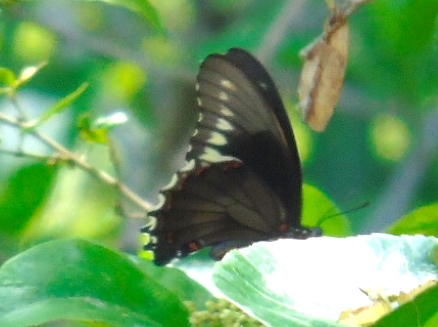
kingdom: Animalia
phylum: Arthropoda
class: Insecta
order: Lepidoptera
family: Papilionidae
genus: Battus
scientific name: Battus polydamas
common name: Polydamas swallowtail
